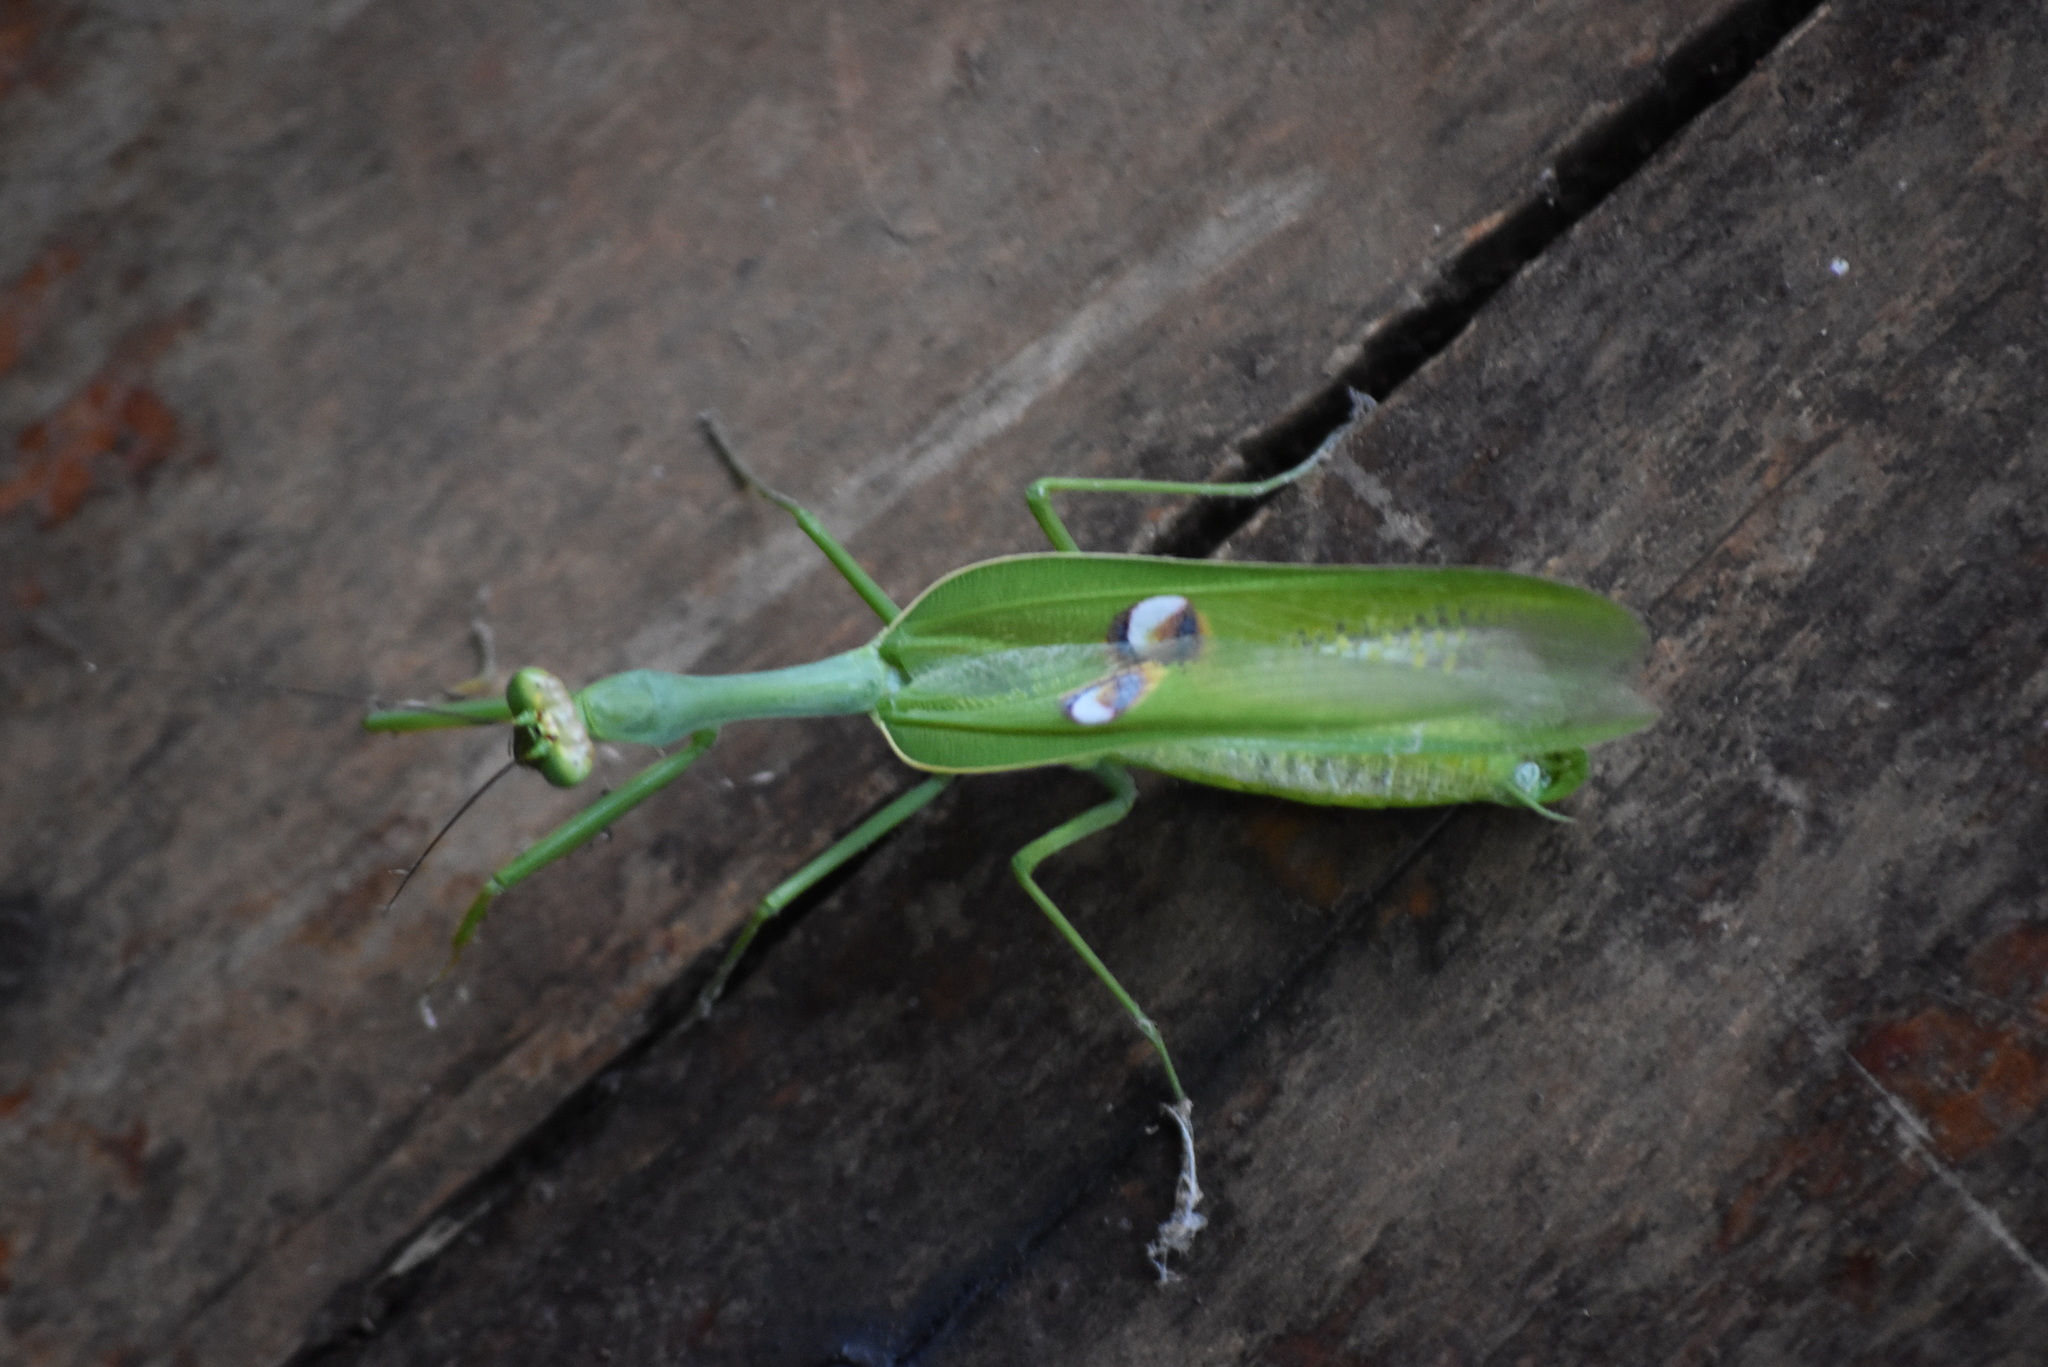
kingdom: Animalia
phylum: Arthropoda
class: Insecta
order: Mantodea
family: Mantidae
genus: Stagmatoptera
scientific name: Stagmatoptera hyaloptera
